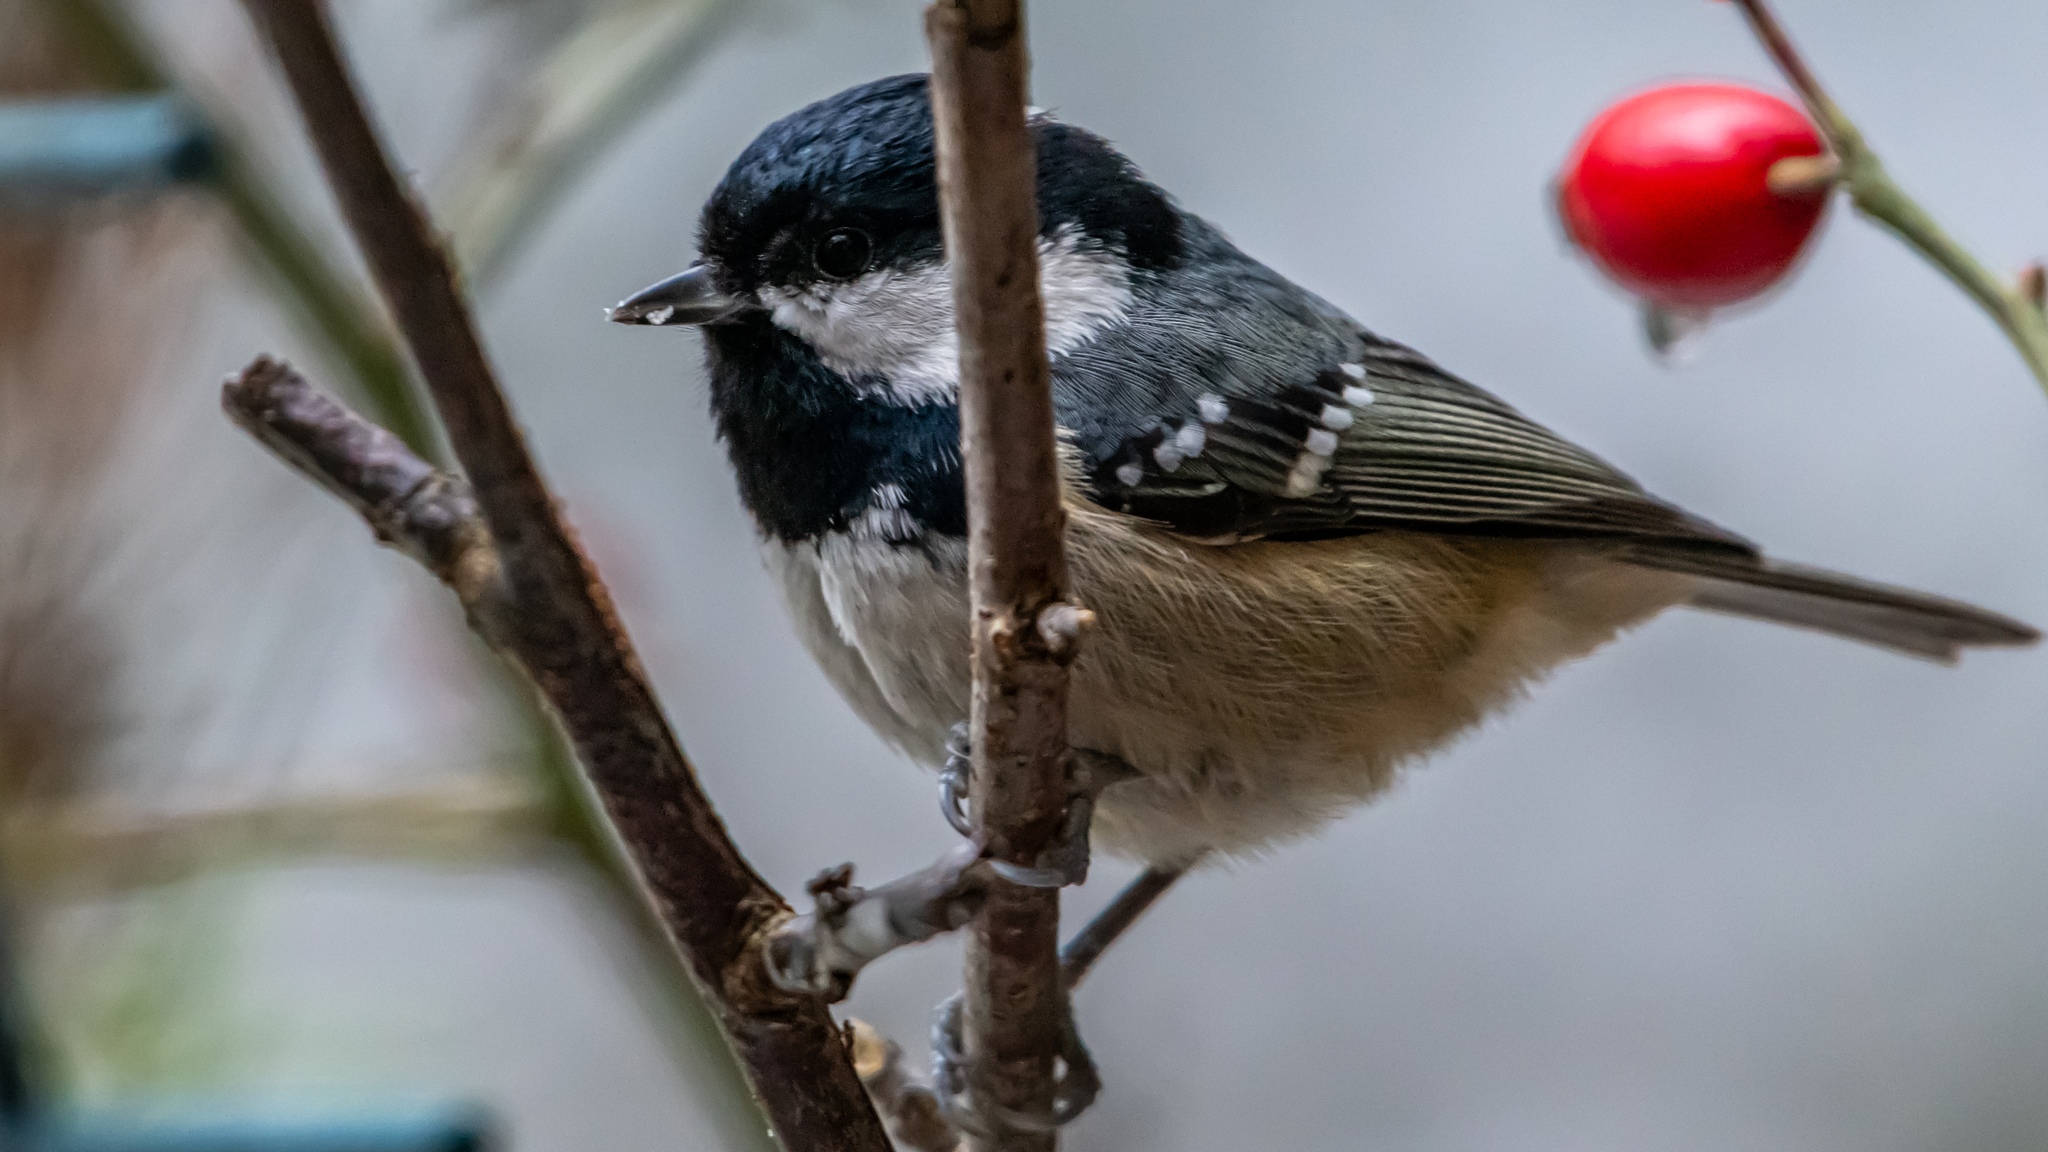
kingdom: Animalia
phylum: Chordata
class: Aves
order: Passeriformes
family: Paridae
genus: Periparus
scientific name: Periparus ater
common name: Coal tit
